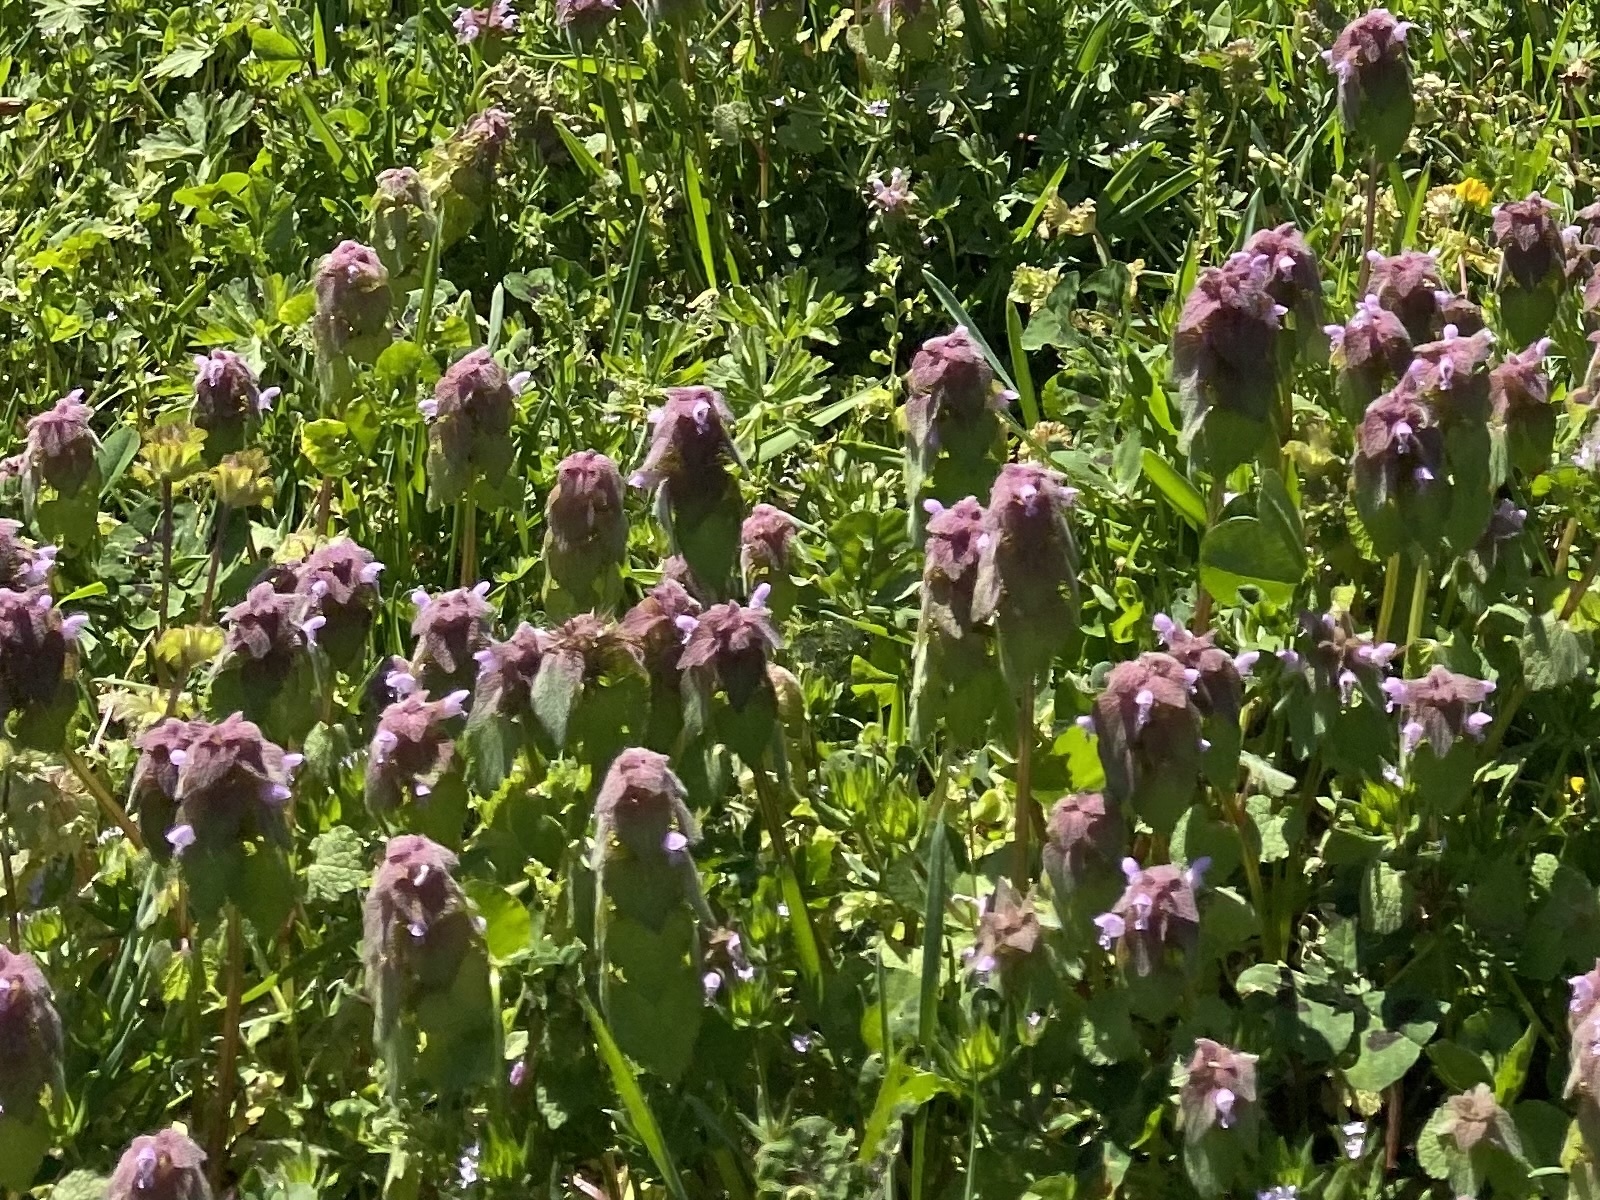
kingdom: Plantae
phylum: Tracheophyta
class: Magnoliopsida
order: Lamiales
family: Lamiaceae
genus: Lamium
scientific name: Lamium purpureum
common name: Red dead-nettle
